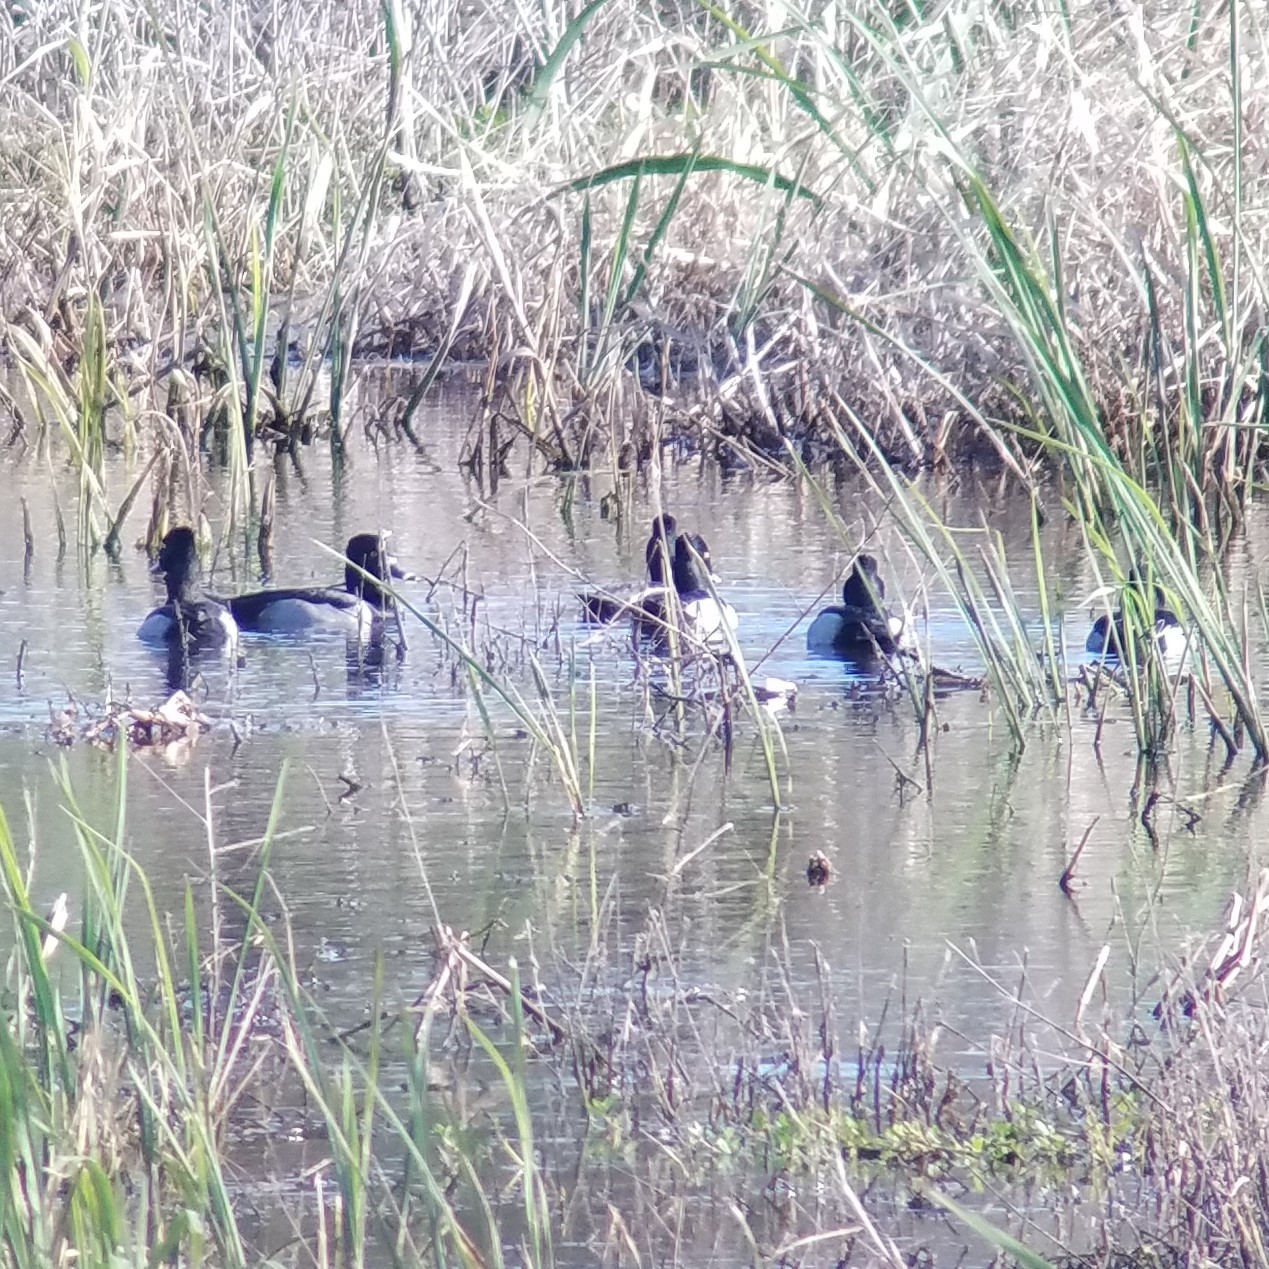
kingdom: Animalia
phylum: Chordata
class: Aves
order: Anseriformes
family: Anatidae
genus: Aythya
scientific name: Aythya collaris
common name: Ring-necked duck
